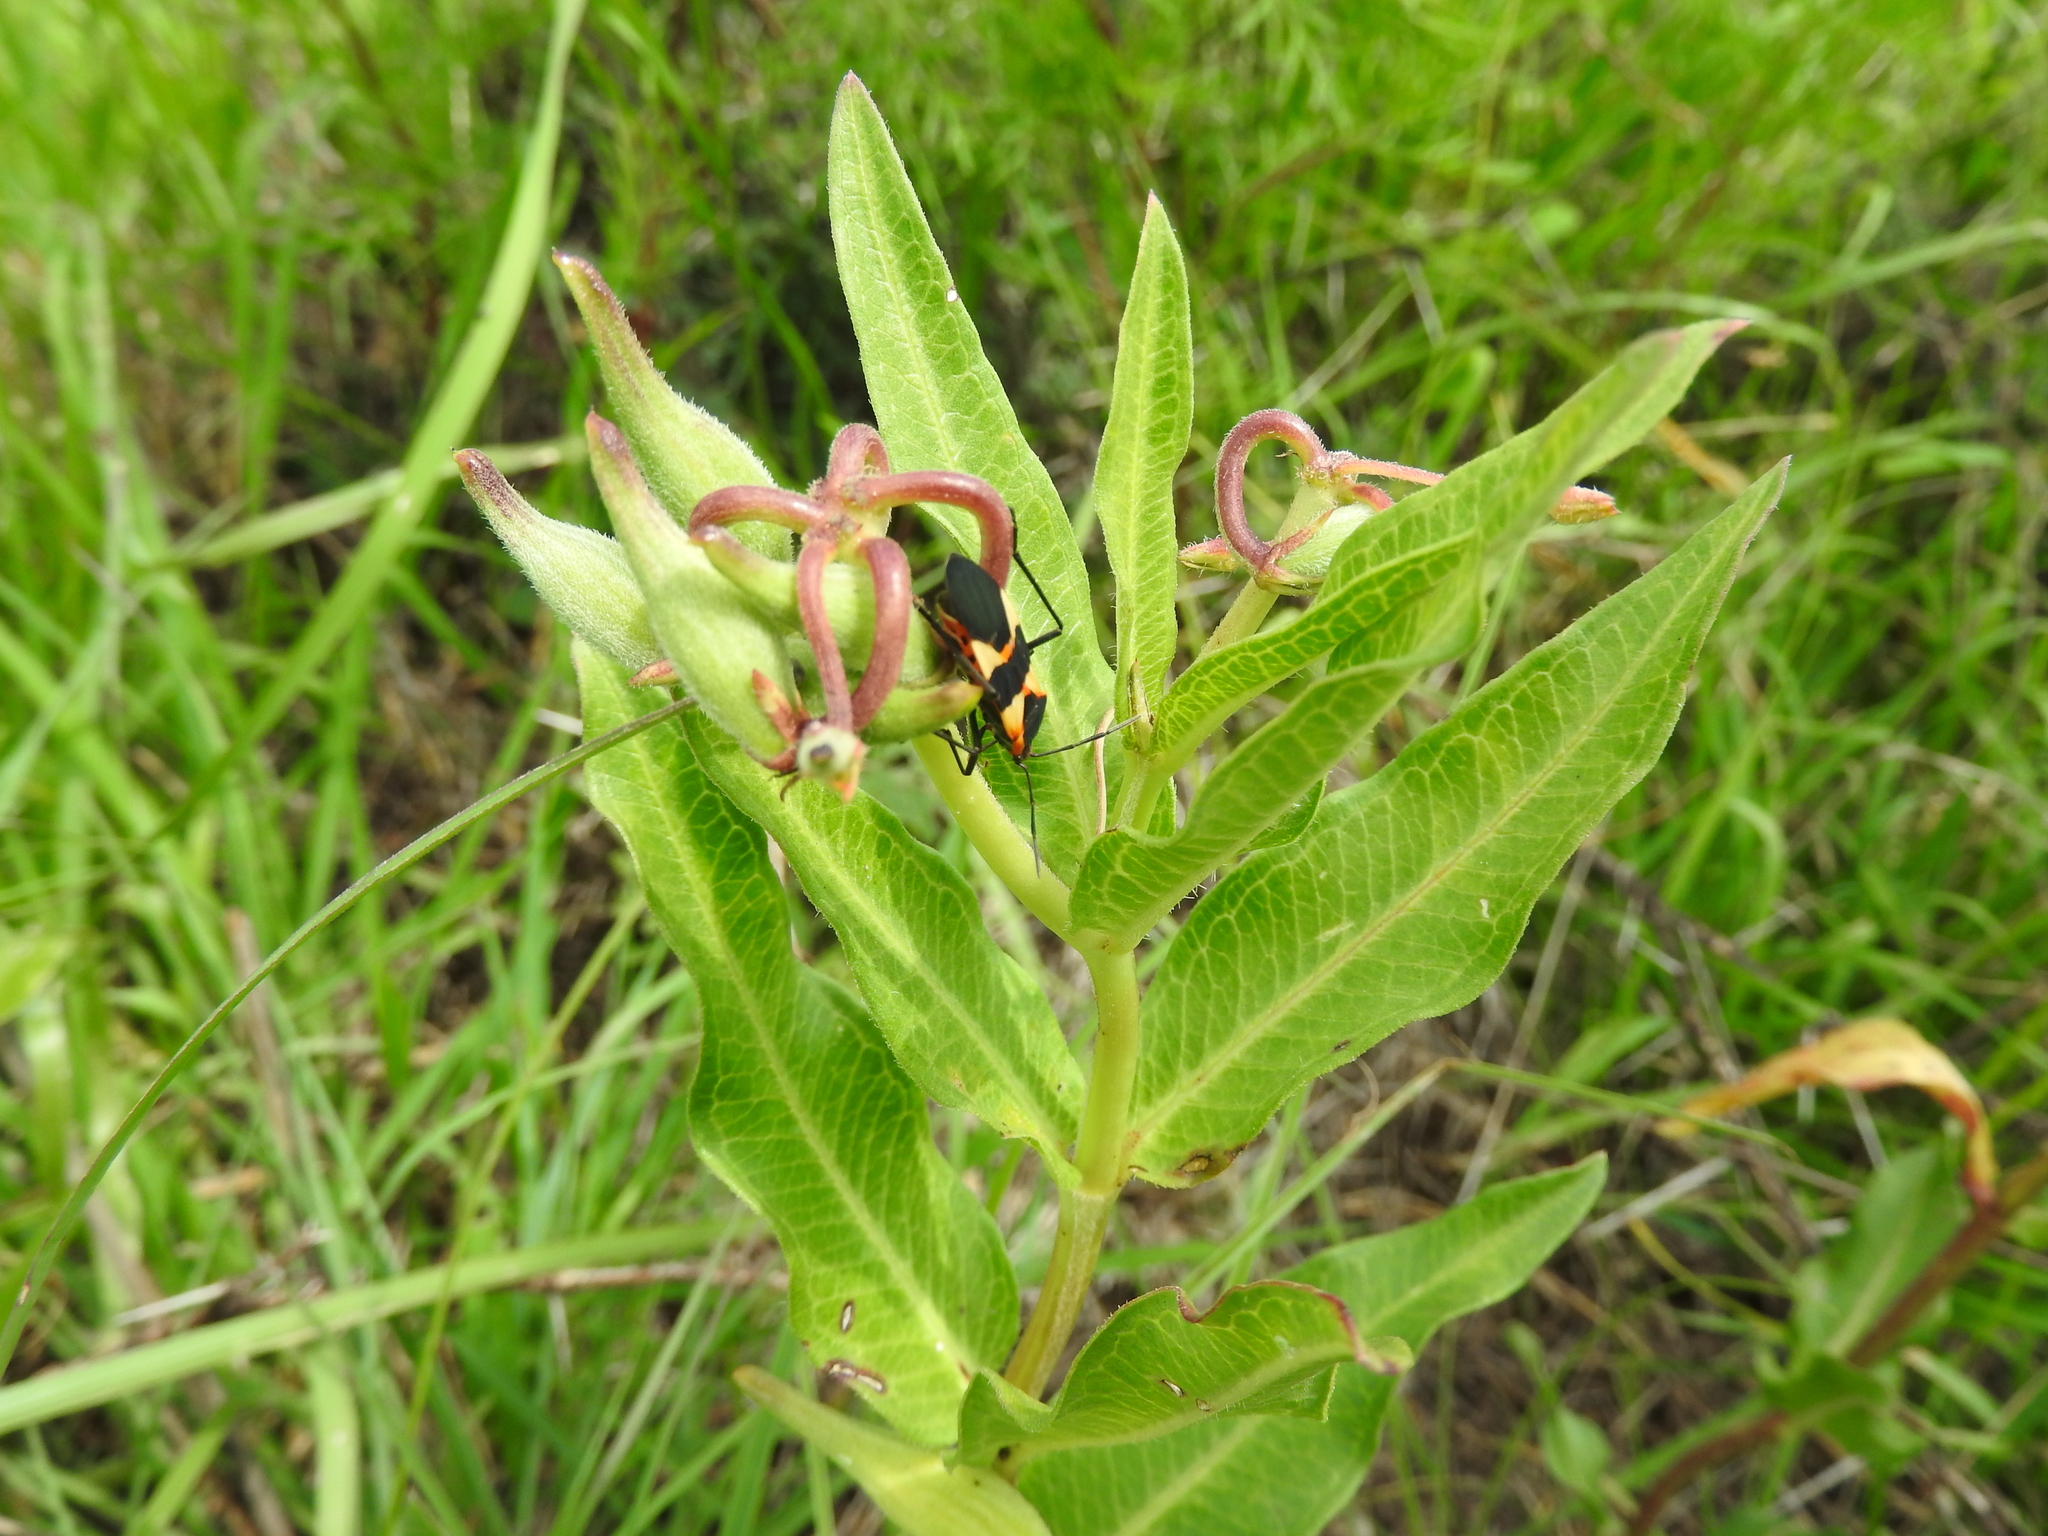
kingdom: Animalia
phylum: Arthropoda
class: Insecta
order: Hemiptera
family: Lygaeidae
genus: Oncopeltus
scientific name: Oncopeltus fasciatus
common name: Large milkweed bug
